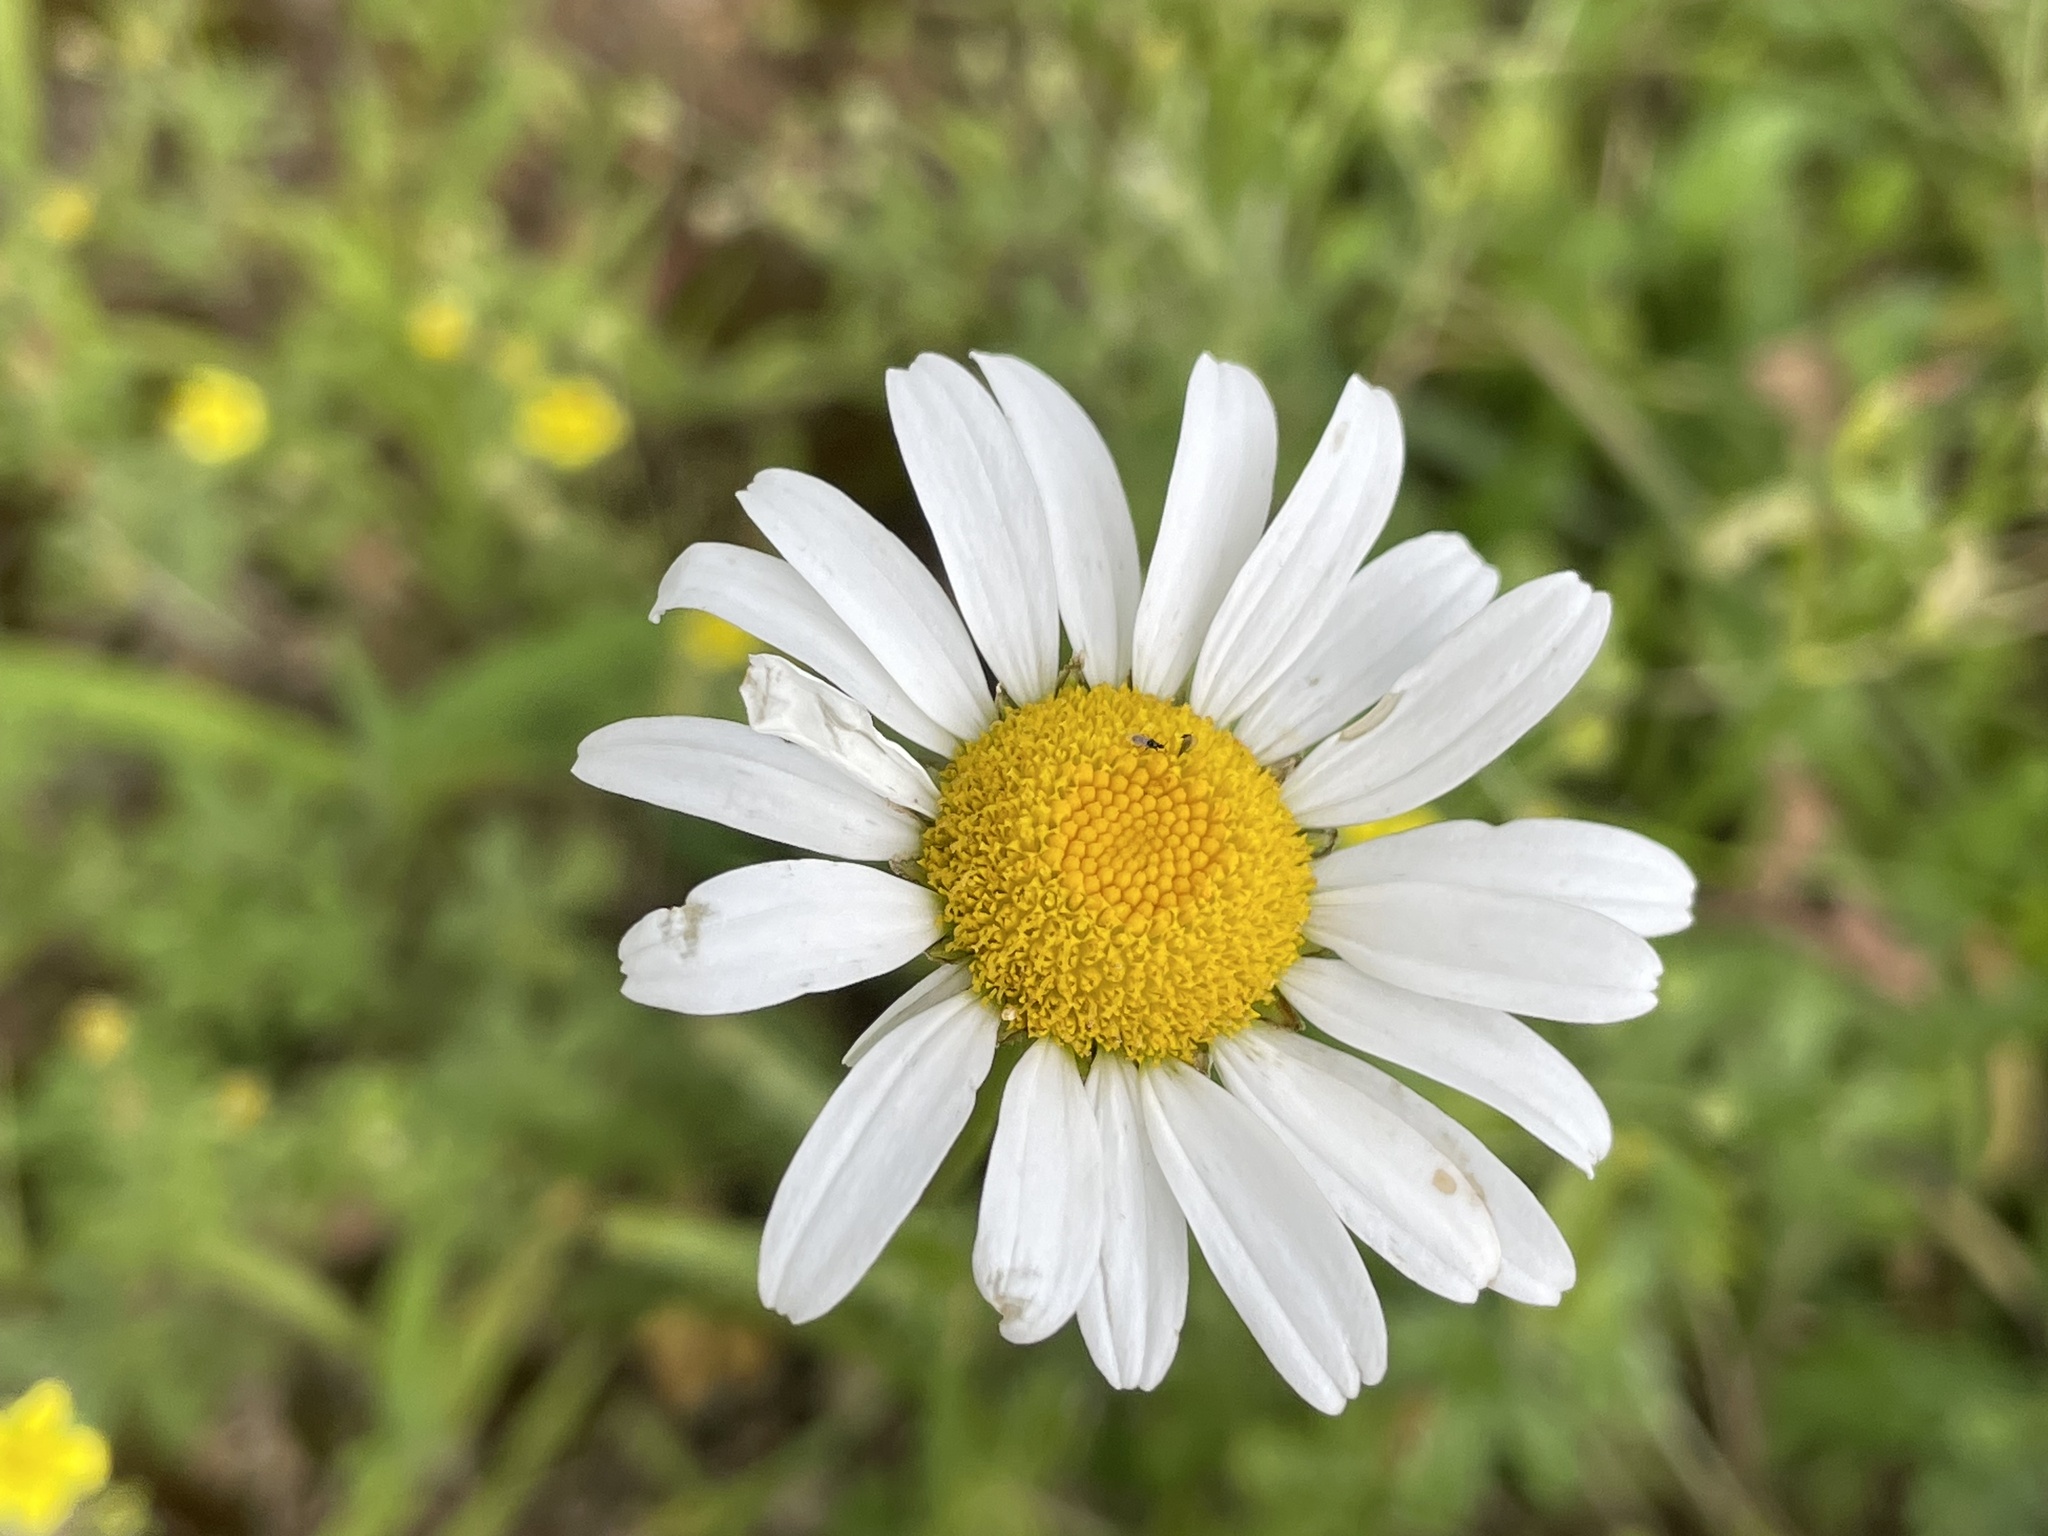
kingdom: Plantae
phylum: Tracheophyta
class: Magnoliopsida
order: Asterales
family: Asteraceae
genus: Leucanthemum
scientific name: Leucanthemum vulgare
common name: Oxeye daisy
